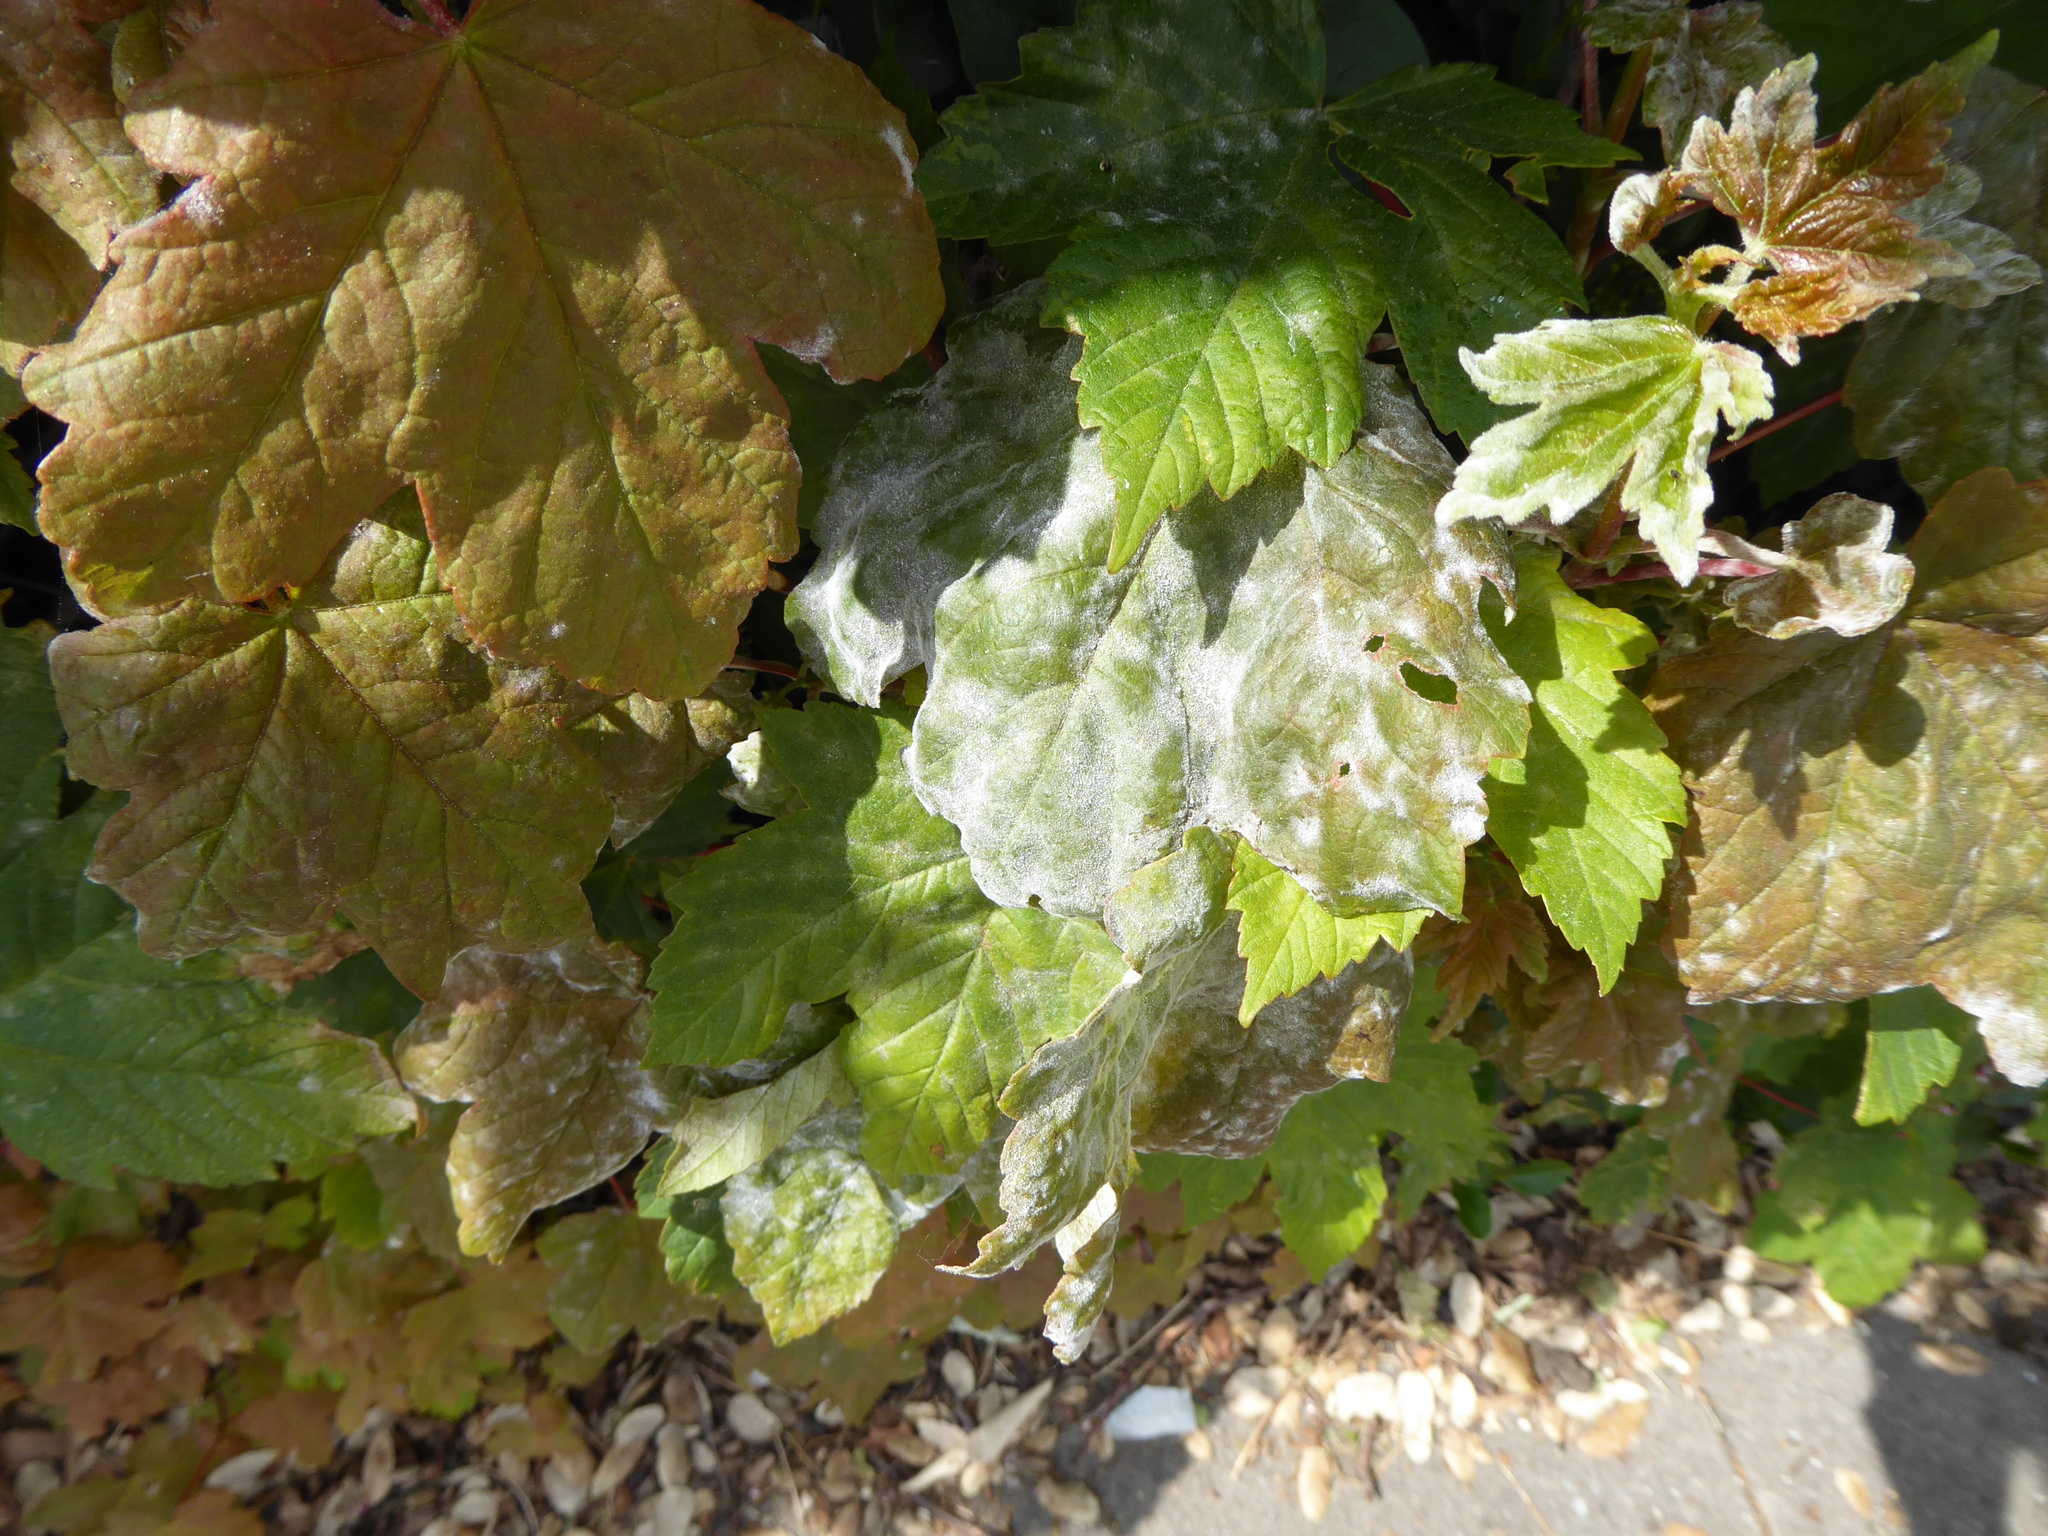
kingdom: Fungi
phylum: Ascomycota
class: Leotiomycetes
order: Helotiales
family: Erysiphaceae
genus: Sawadaea
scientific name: Sawadaea bicornis
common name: Maple mildew
